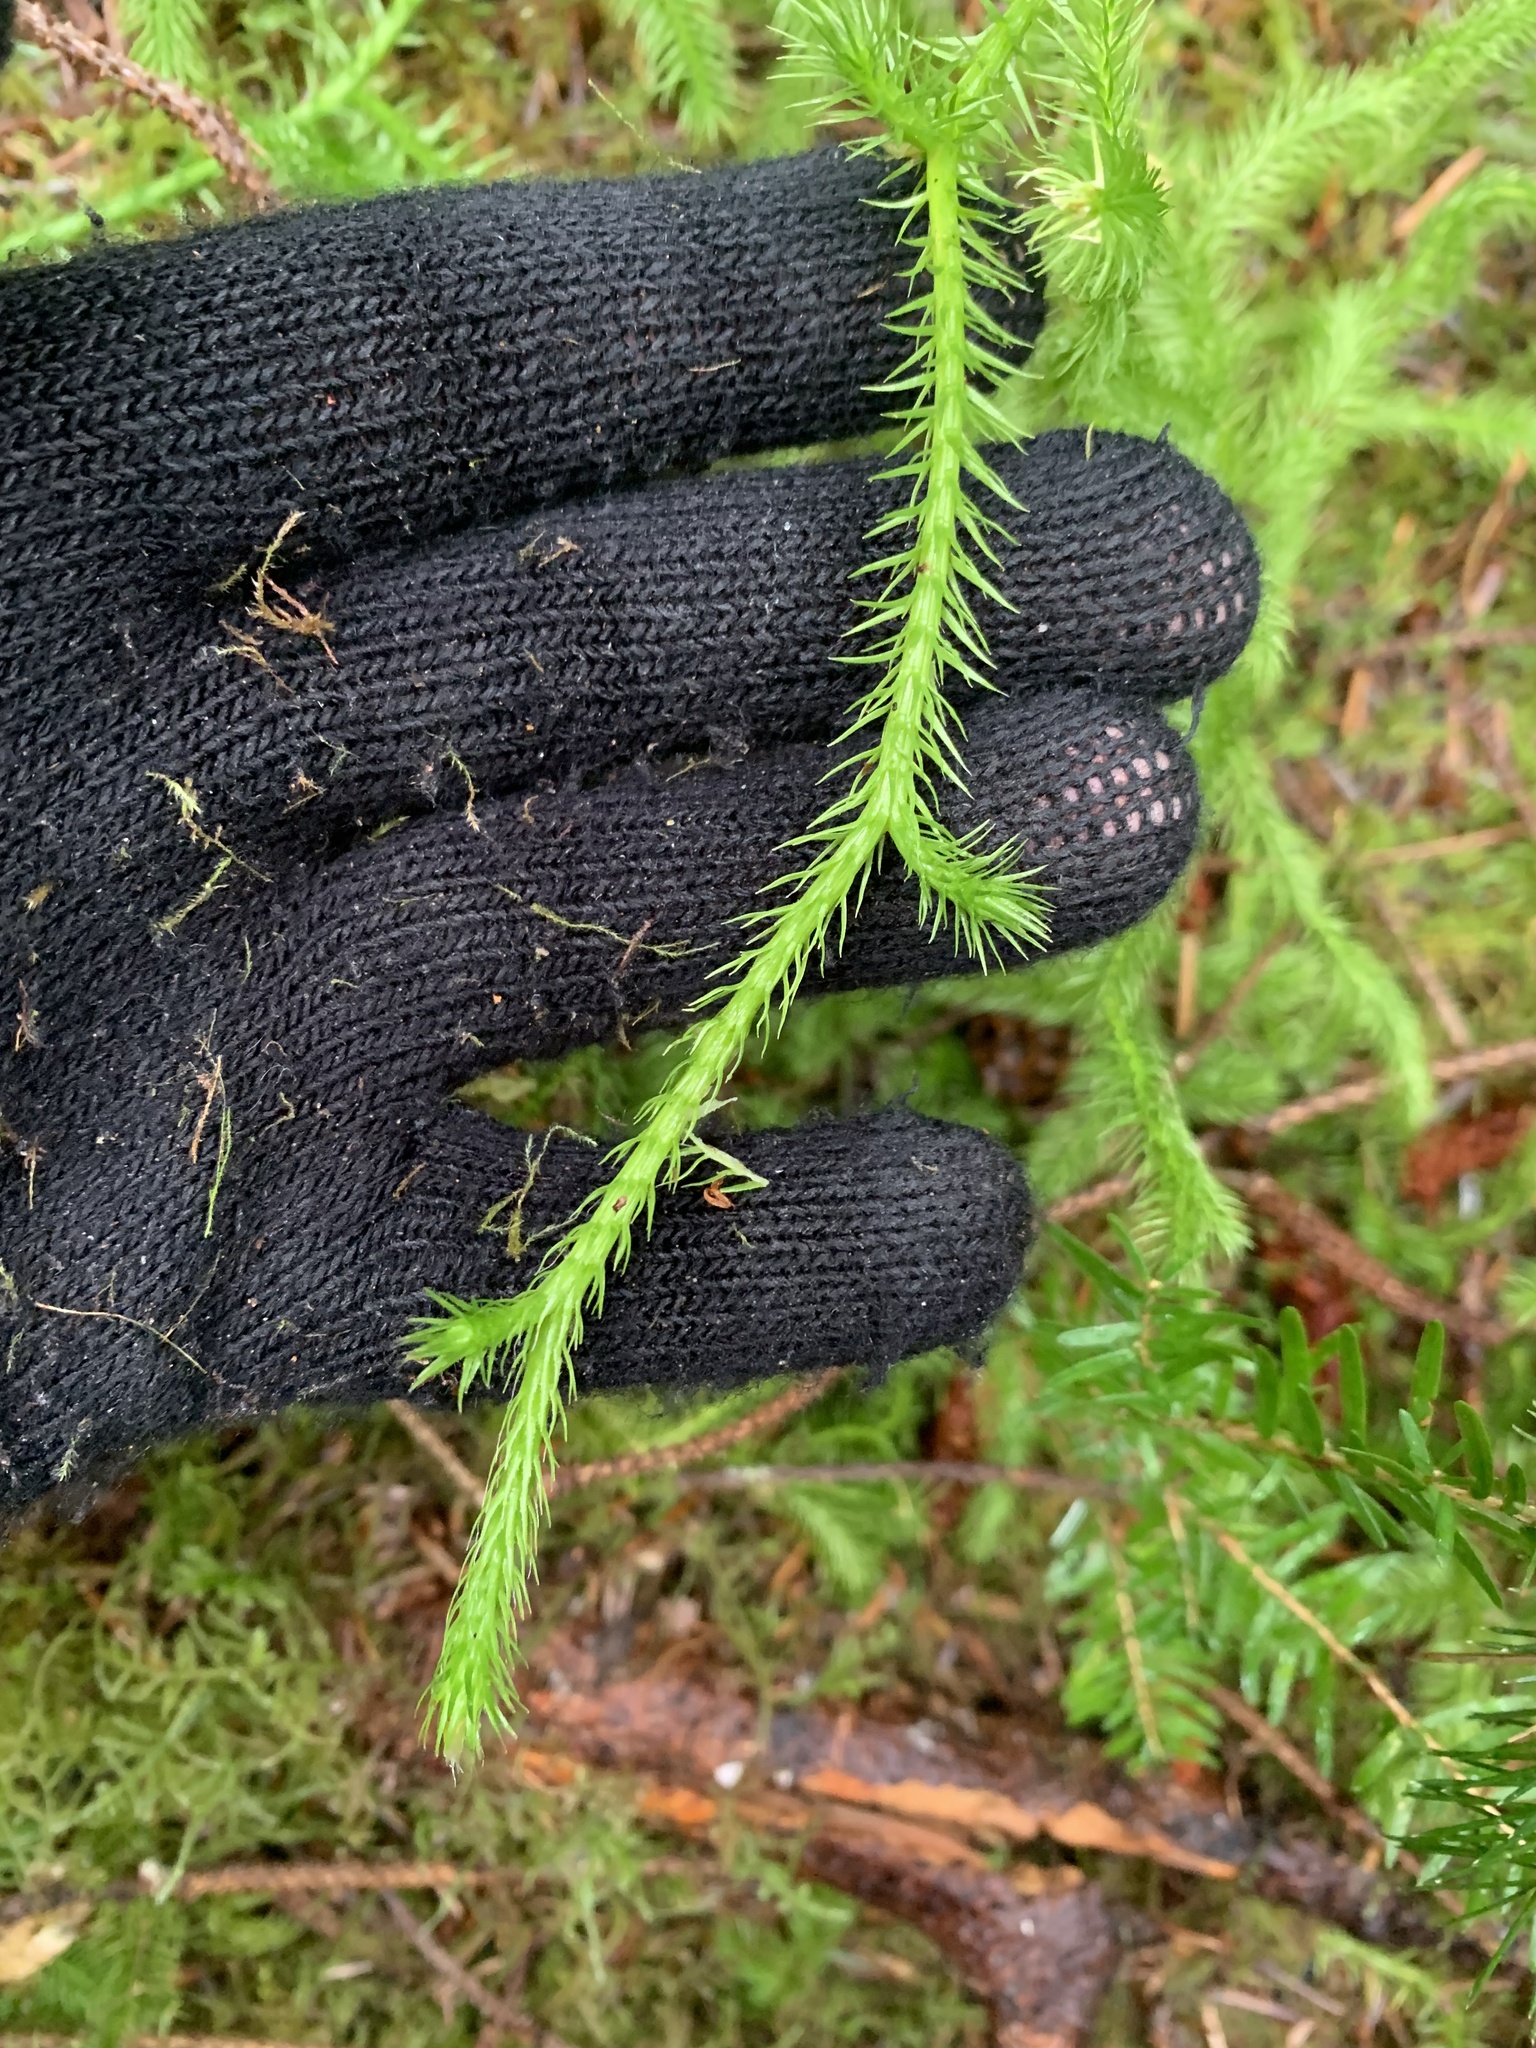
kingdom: Plantae
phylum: Tracheophyta
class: Lycopodiopsida
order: Lycopodiales
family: Lycopodiaceae
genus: Lycopodium
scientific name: Lycopodium clavatum
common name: Stag's-horn clubmoss
